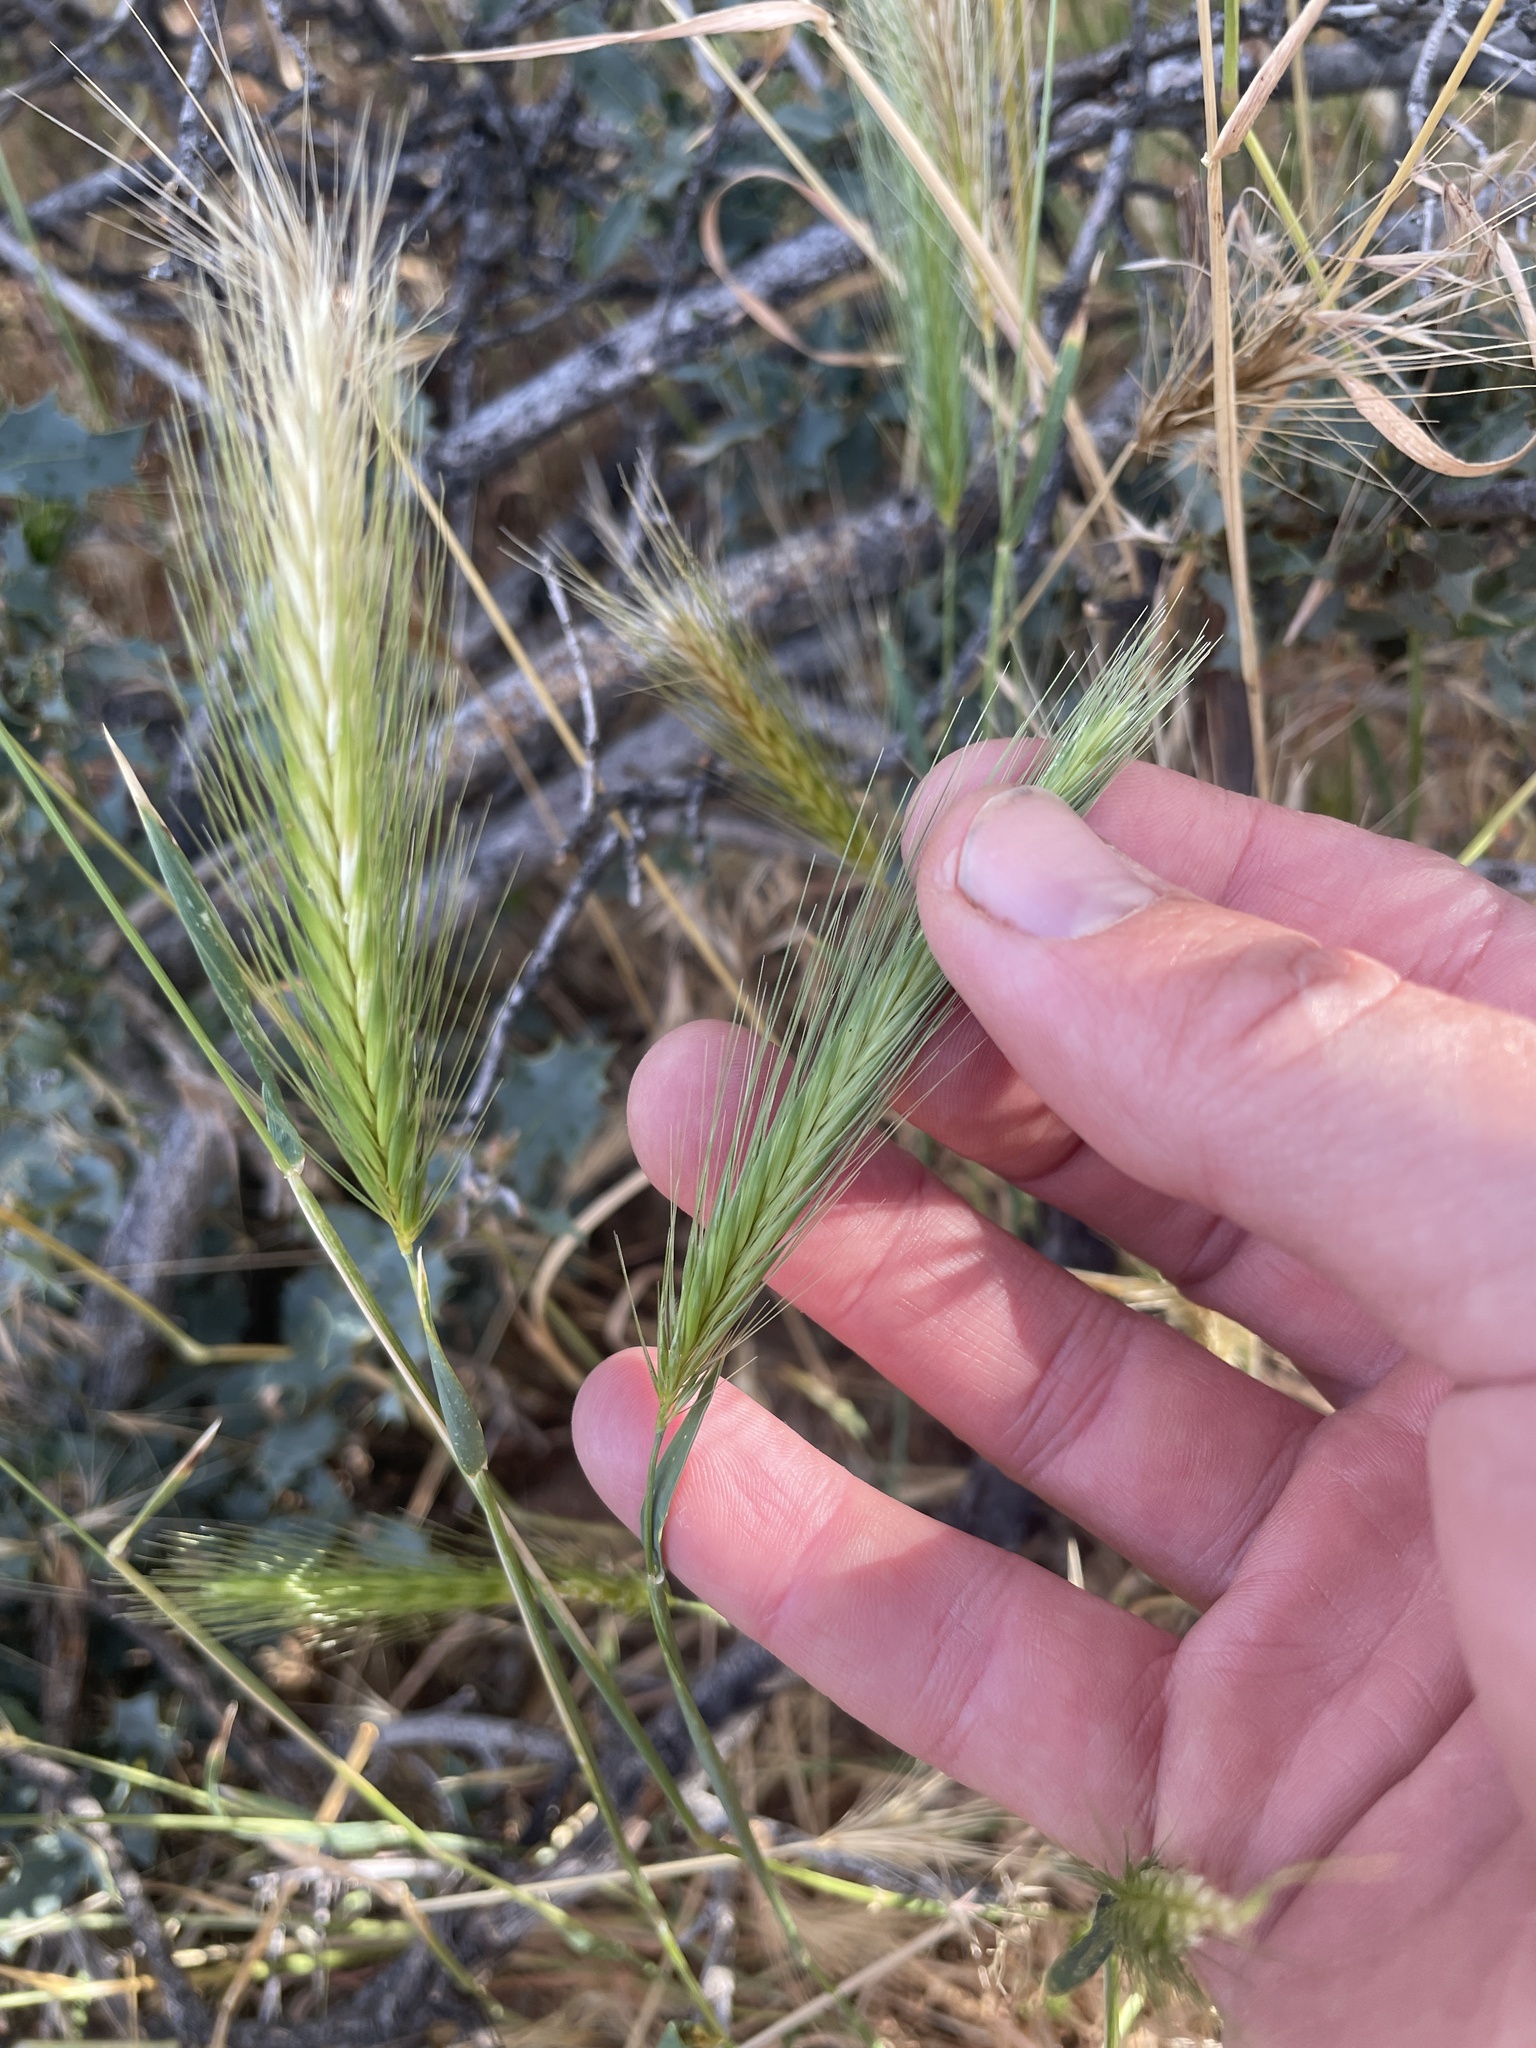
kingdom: Plantae
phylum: Tracheophyta
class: Liliopsida
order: Poales
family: Poaceae
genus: Hordeum
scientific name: Hordeum murinum
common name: Wall barley
